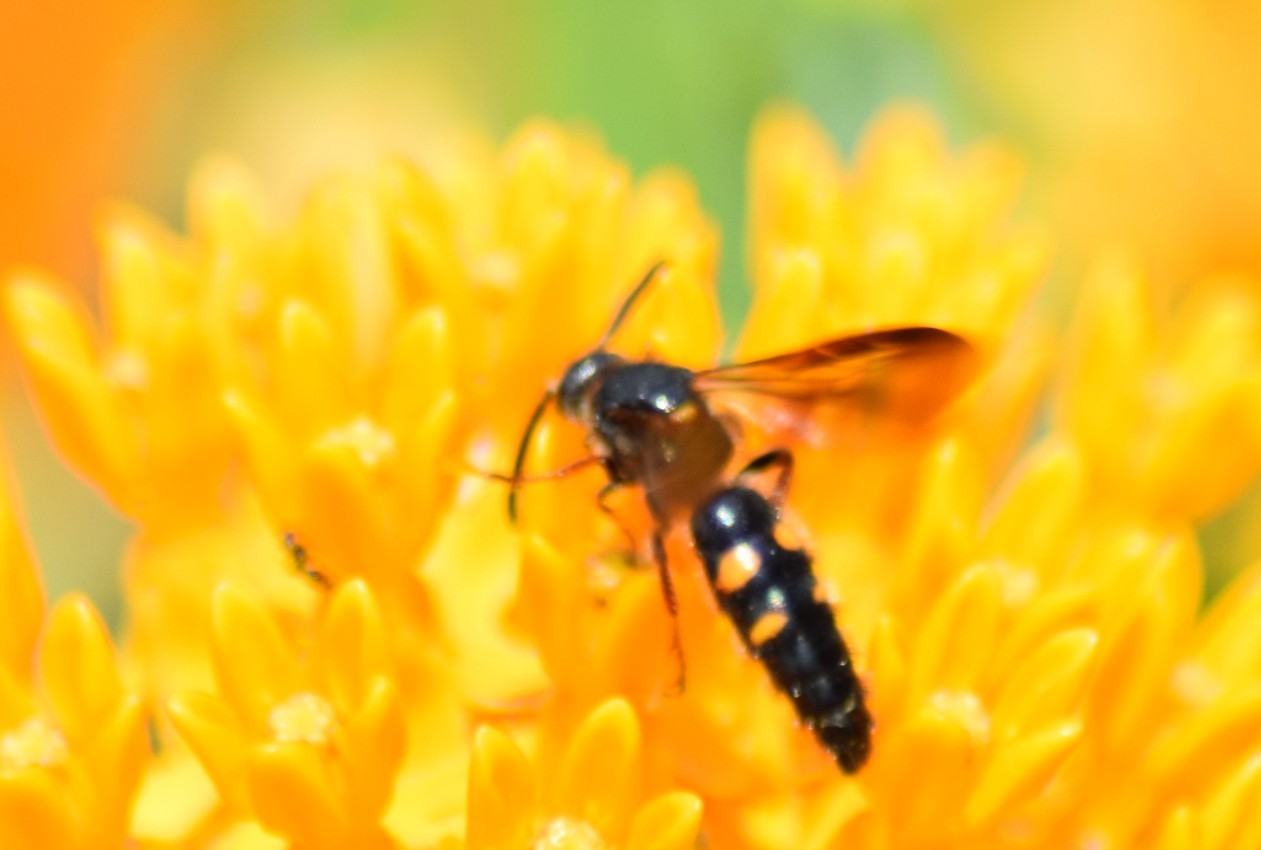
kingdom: Animalia
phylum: Arthropoda
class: Insecta
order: Hymenoptera
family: Scoliidae
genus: Scolia
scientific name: Scolia nobilitata
